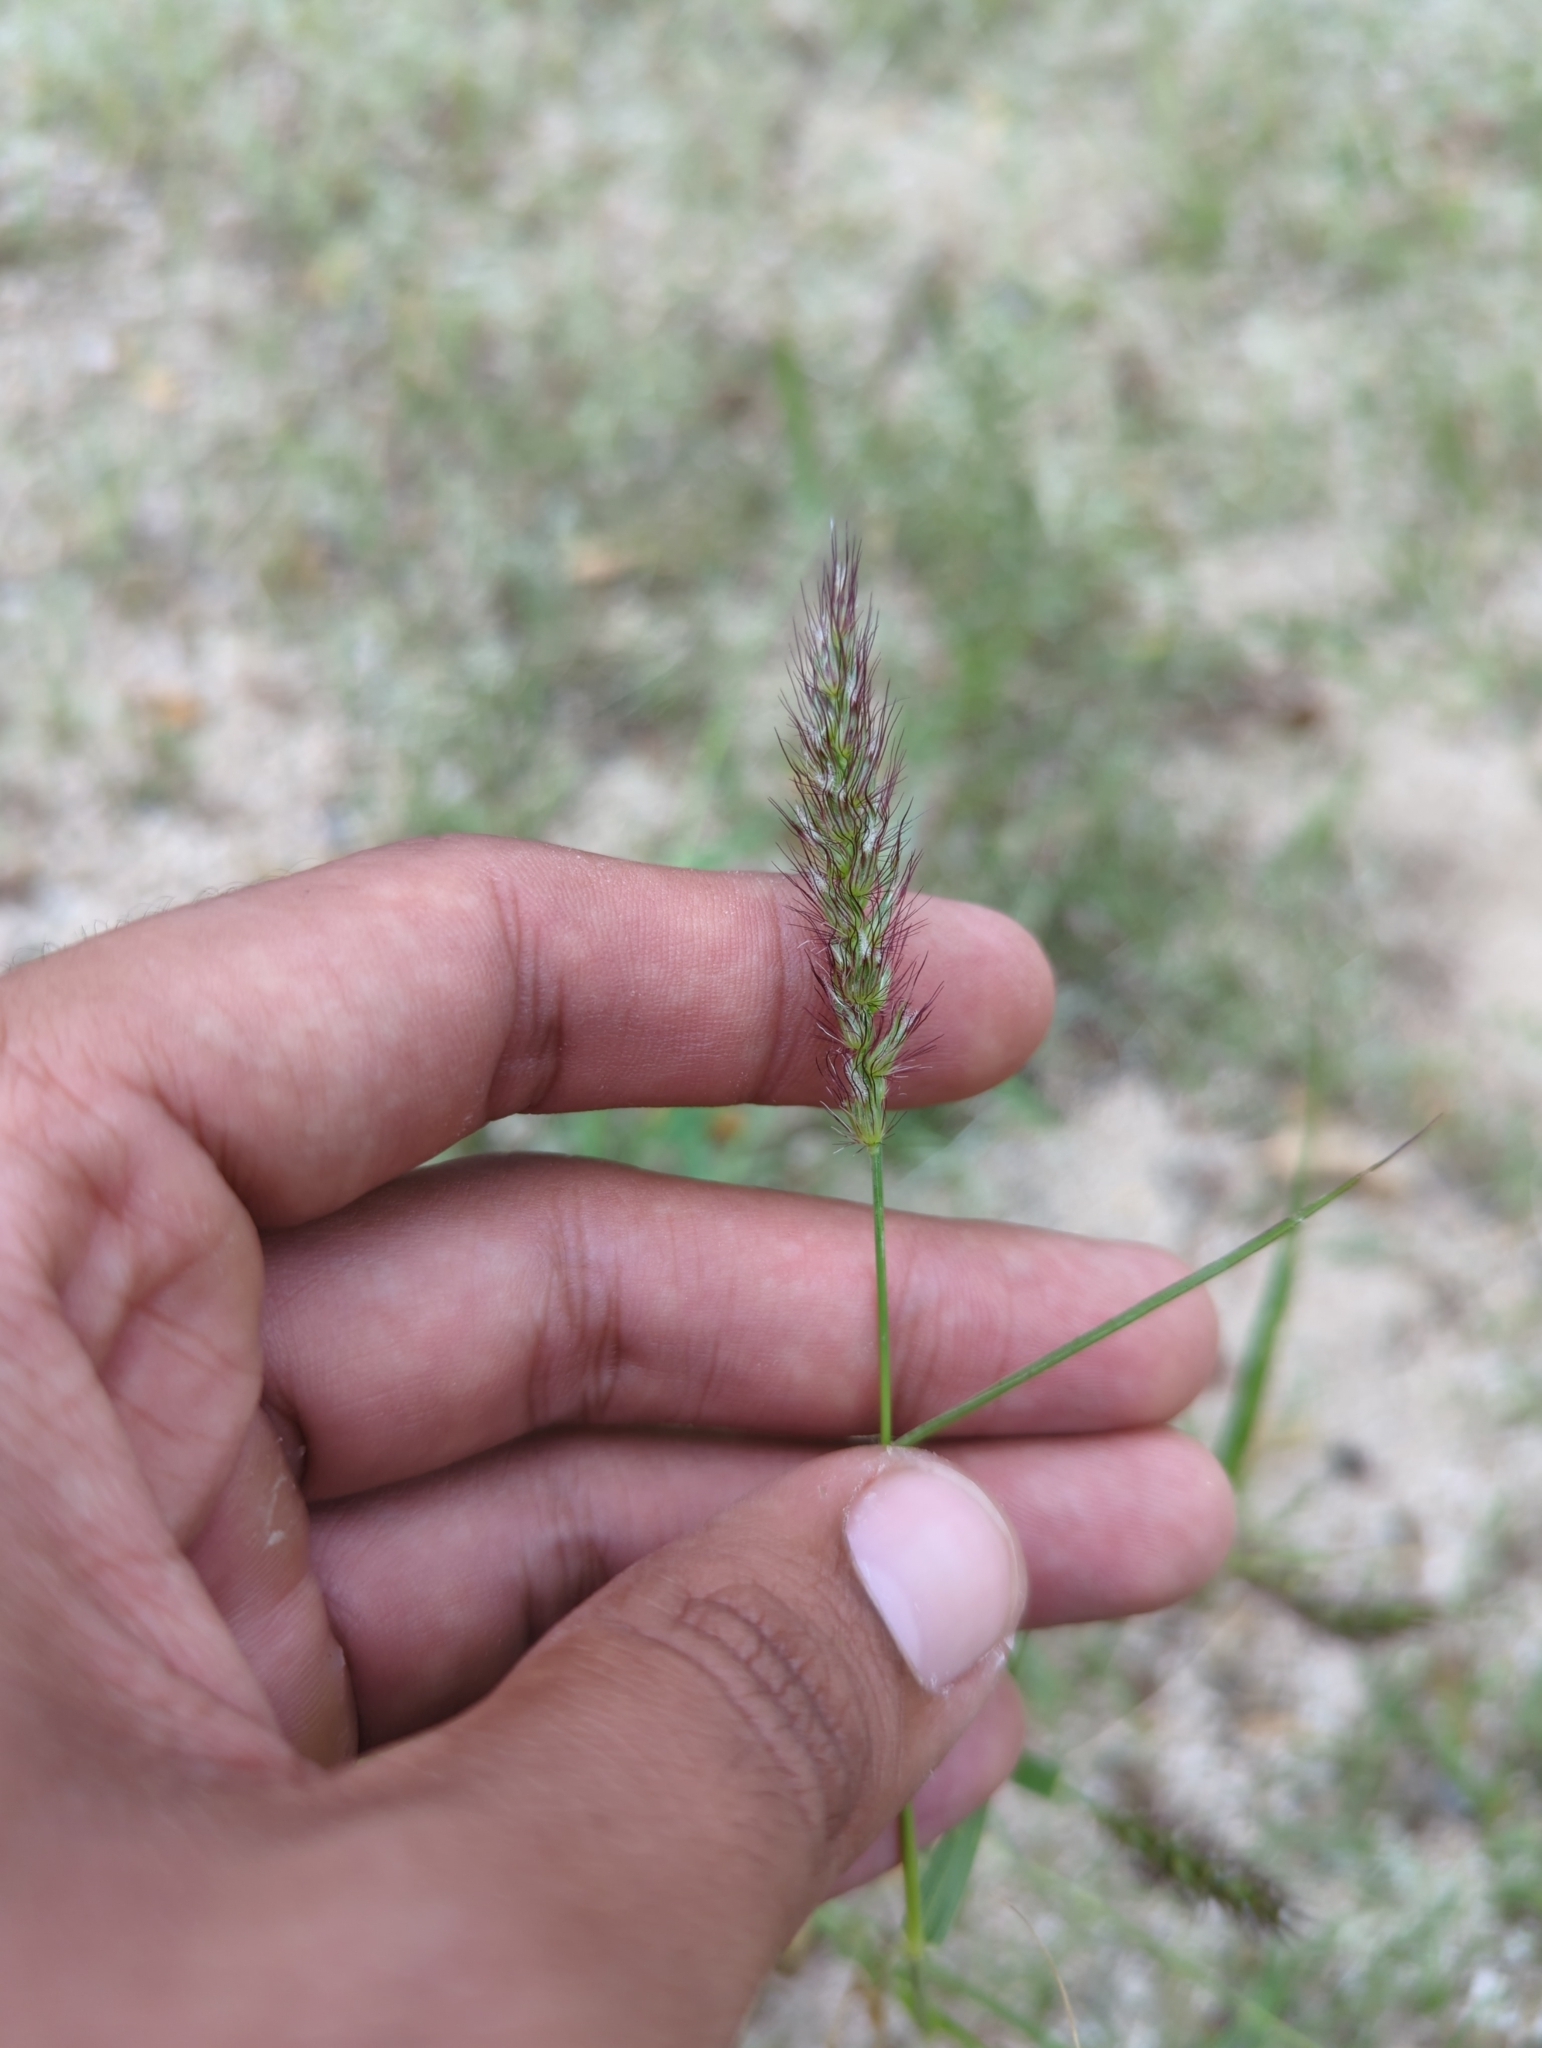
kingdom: Plantae
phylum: Tracheophyta
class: Liliopsida
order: Poales
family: Poaceae
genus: Cenchrus
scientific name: Cenchrus ciliaris
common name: Buffelgrass
